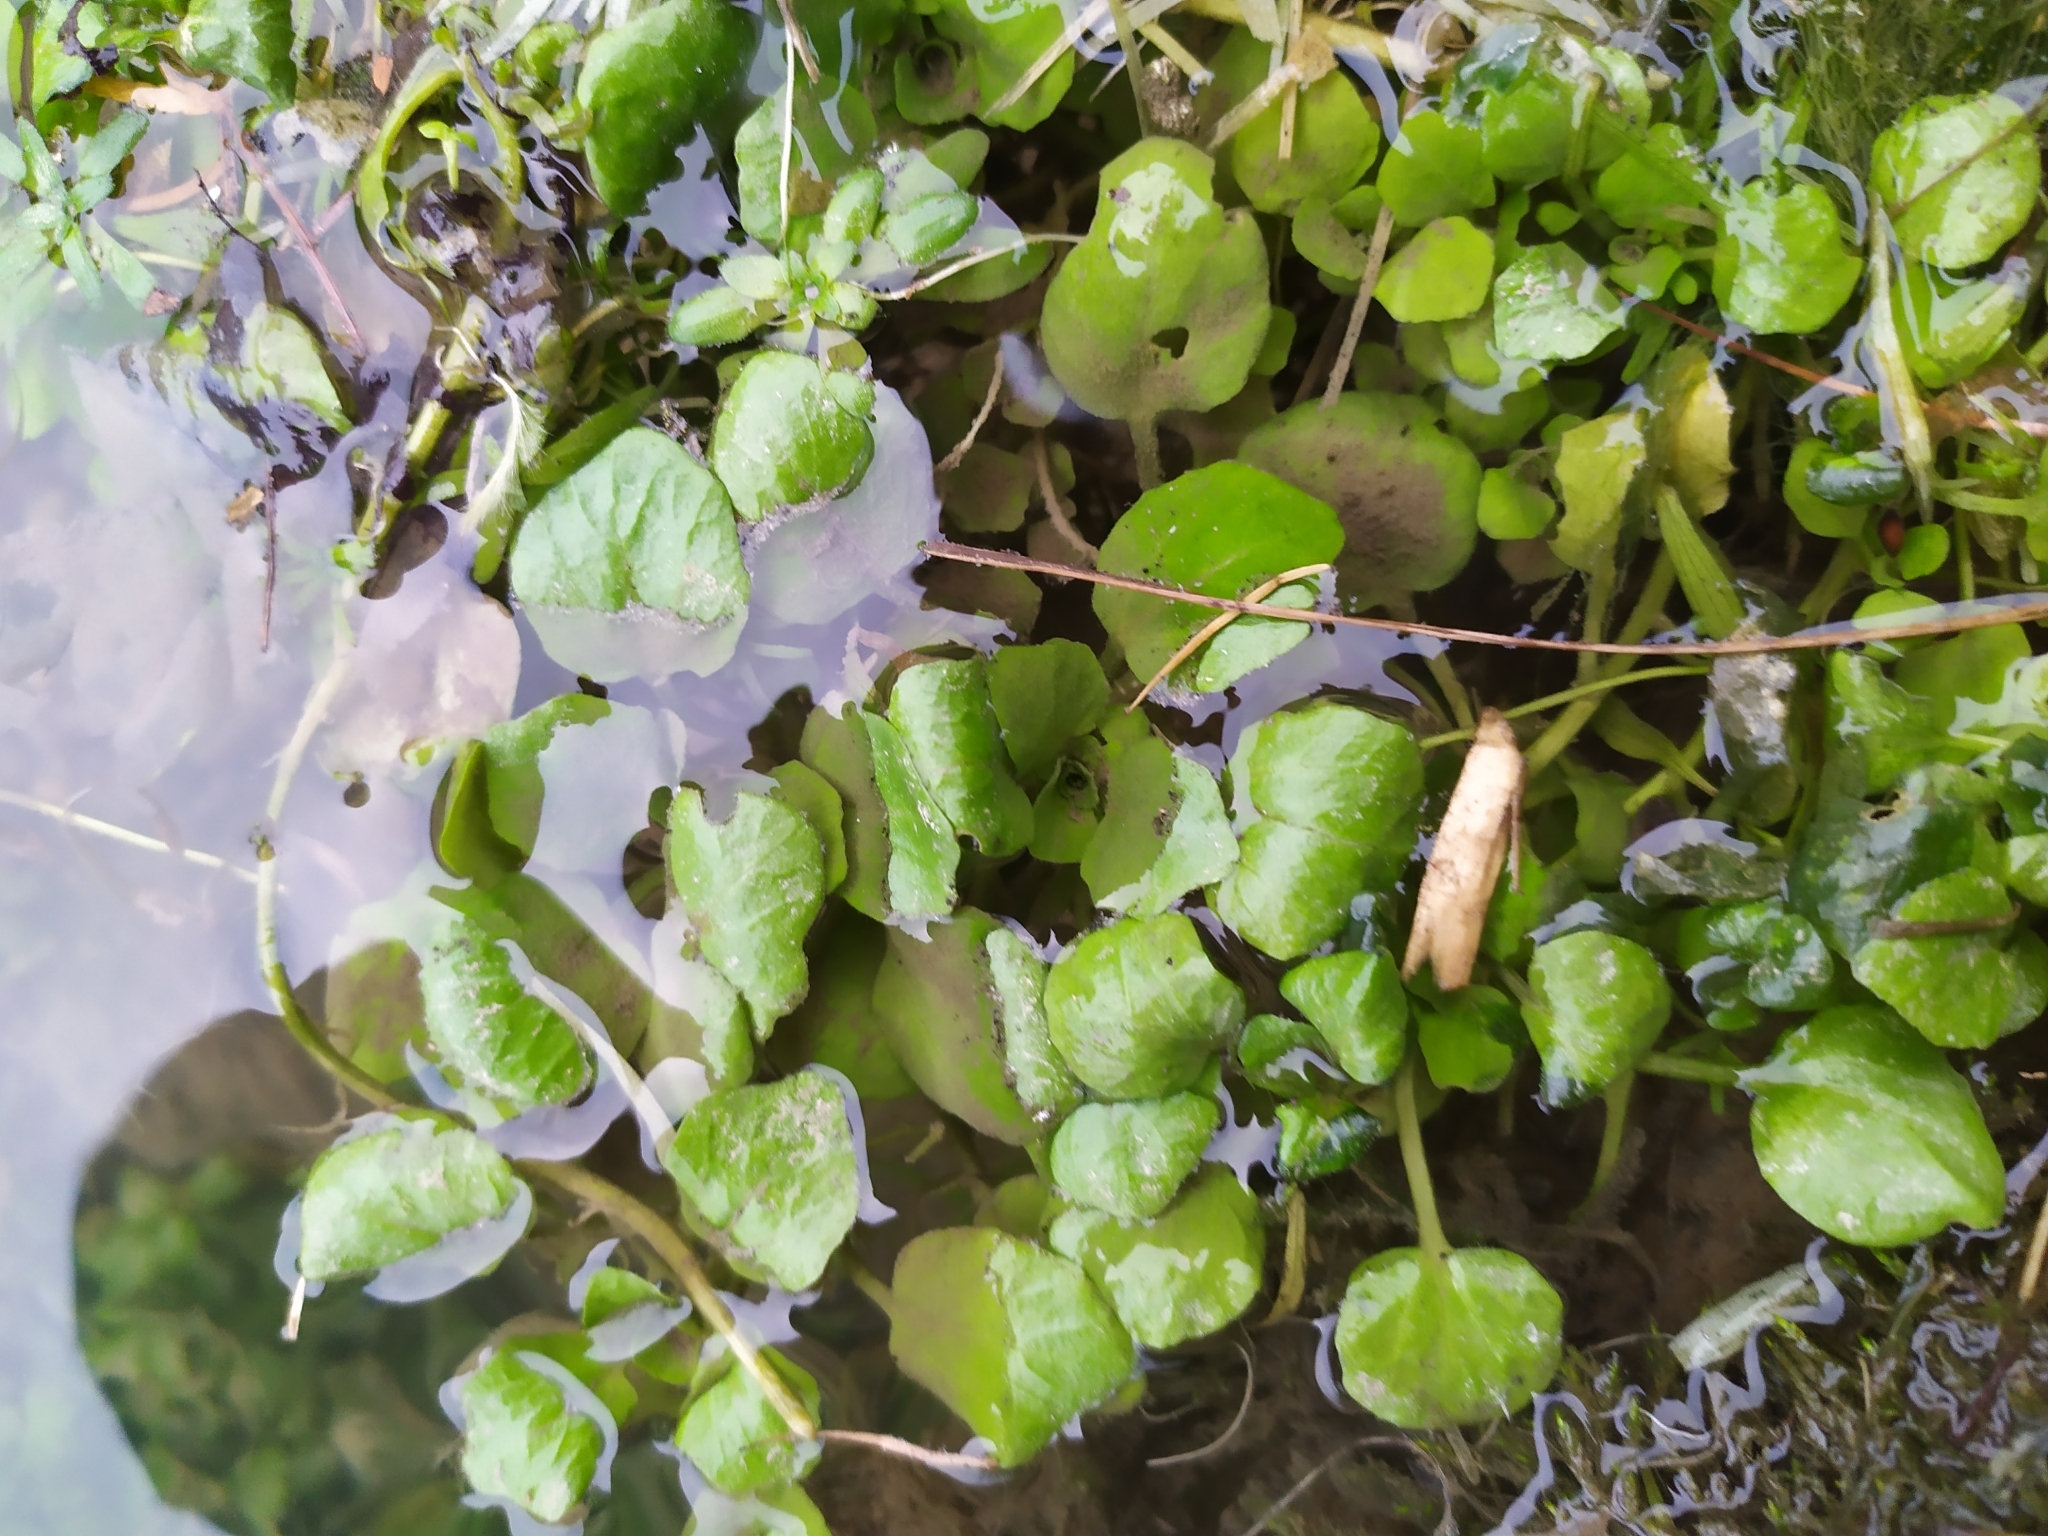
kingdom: Plantae
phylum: Tracheophyta
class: Magnoliopsida
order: Brassicales
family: Brassicaceae
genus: Nasturtium
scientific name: Nasturtium officinale
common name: Watercress
